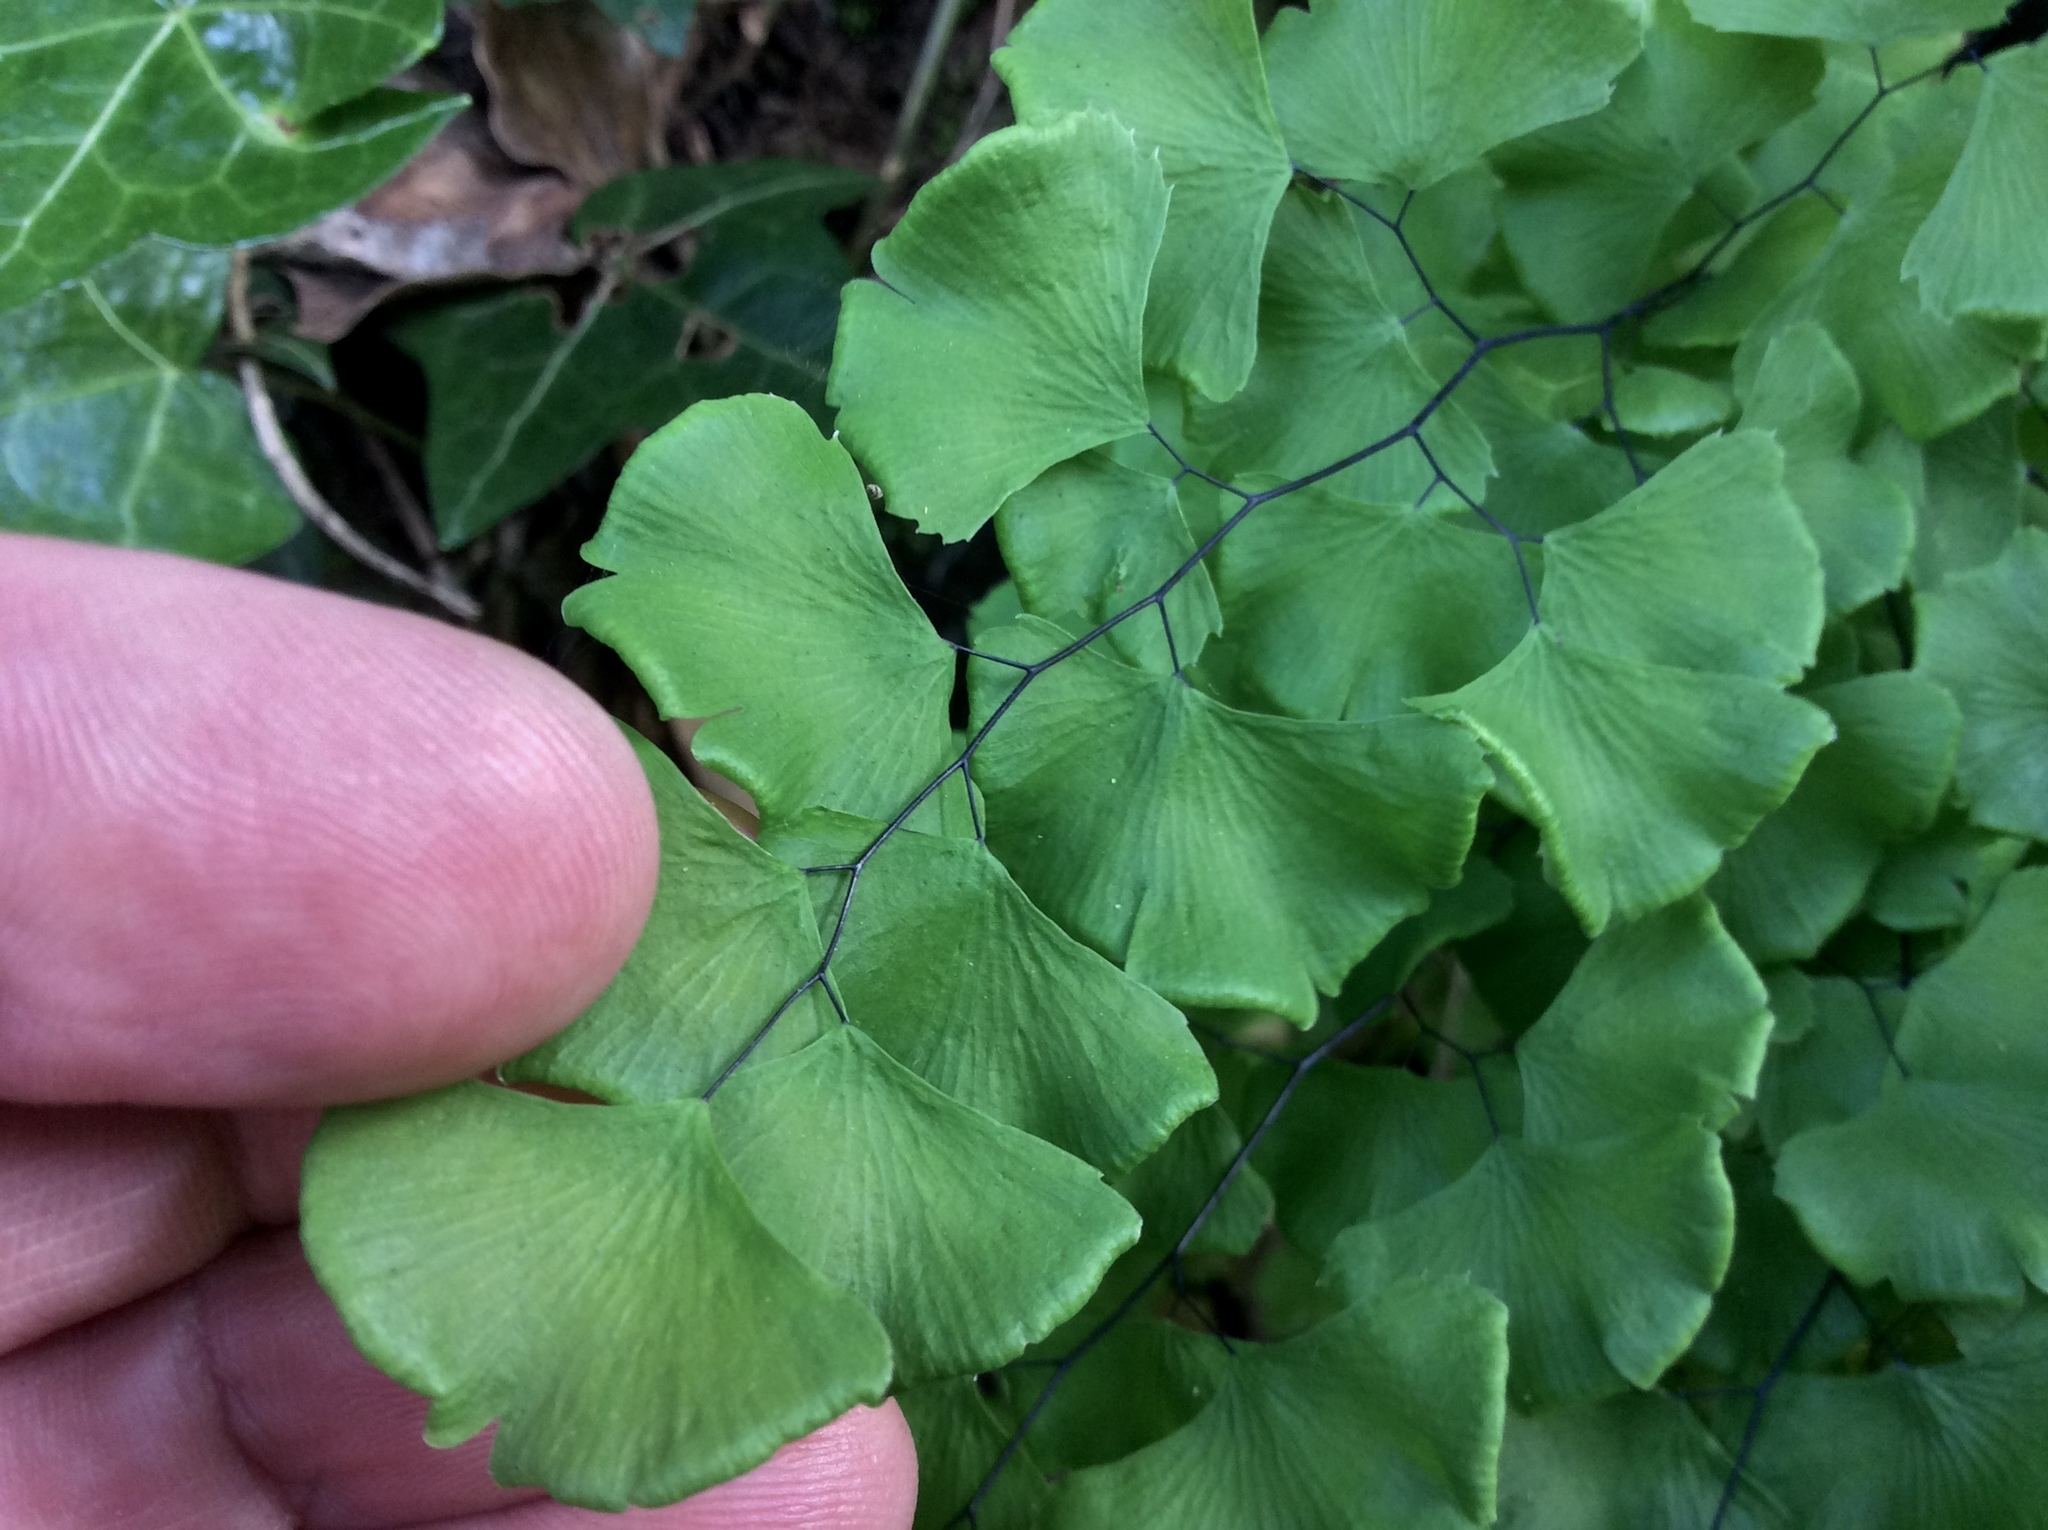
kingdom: Plantae
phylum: Tracheophyta
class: Polypodiopsida
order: Polypodiales
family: Pteridaceae
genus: Adiantum
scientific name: Adiantum jordanii
